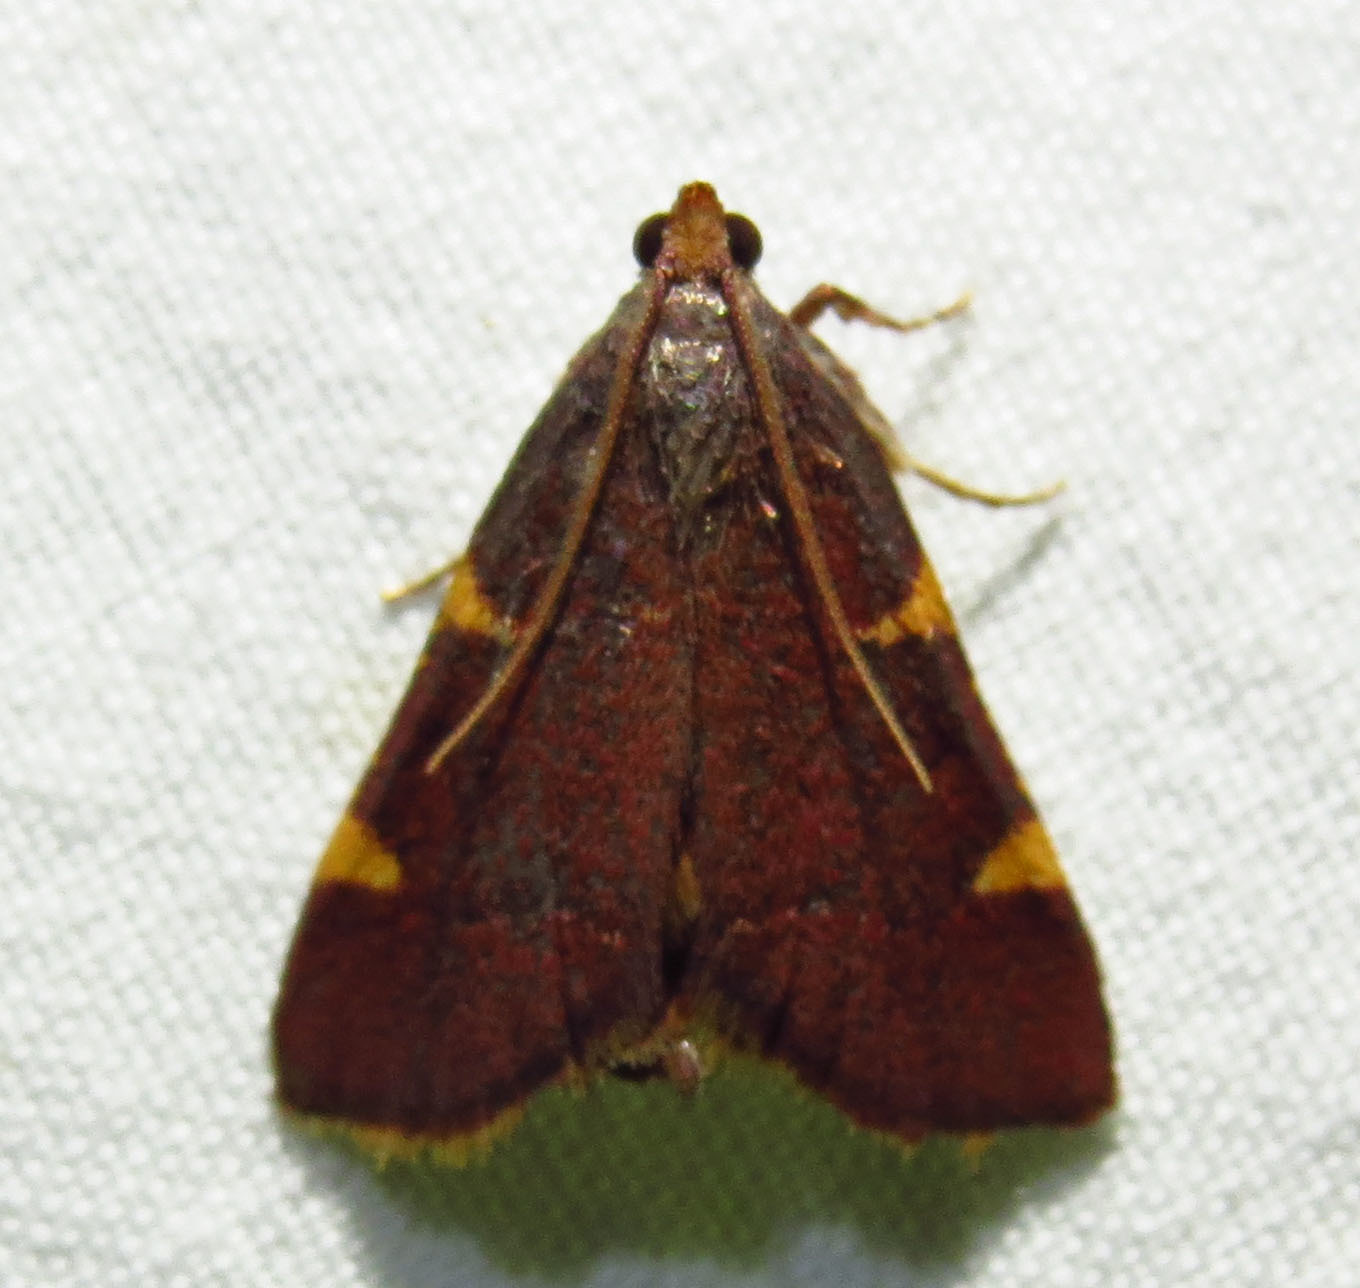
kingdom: Animalia
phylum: Arthropoda
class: Insecta
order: Lepidoptera
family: Pyralidae
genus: Hypsopygia
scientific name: Hypsopygia olinalis
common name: Yellow-fringed dolichomia moth
